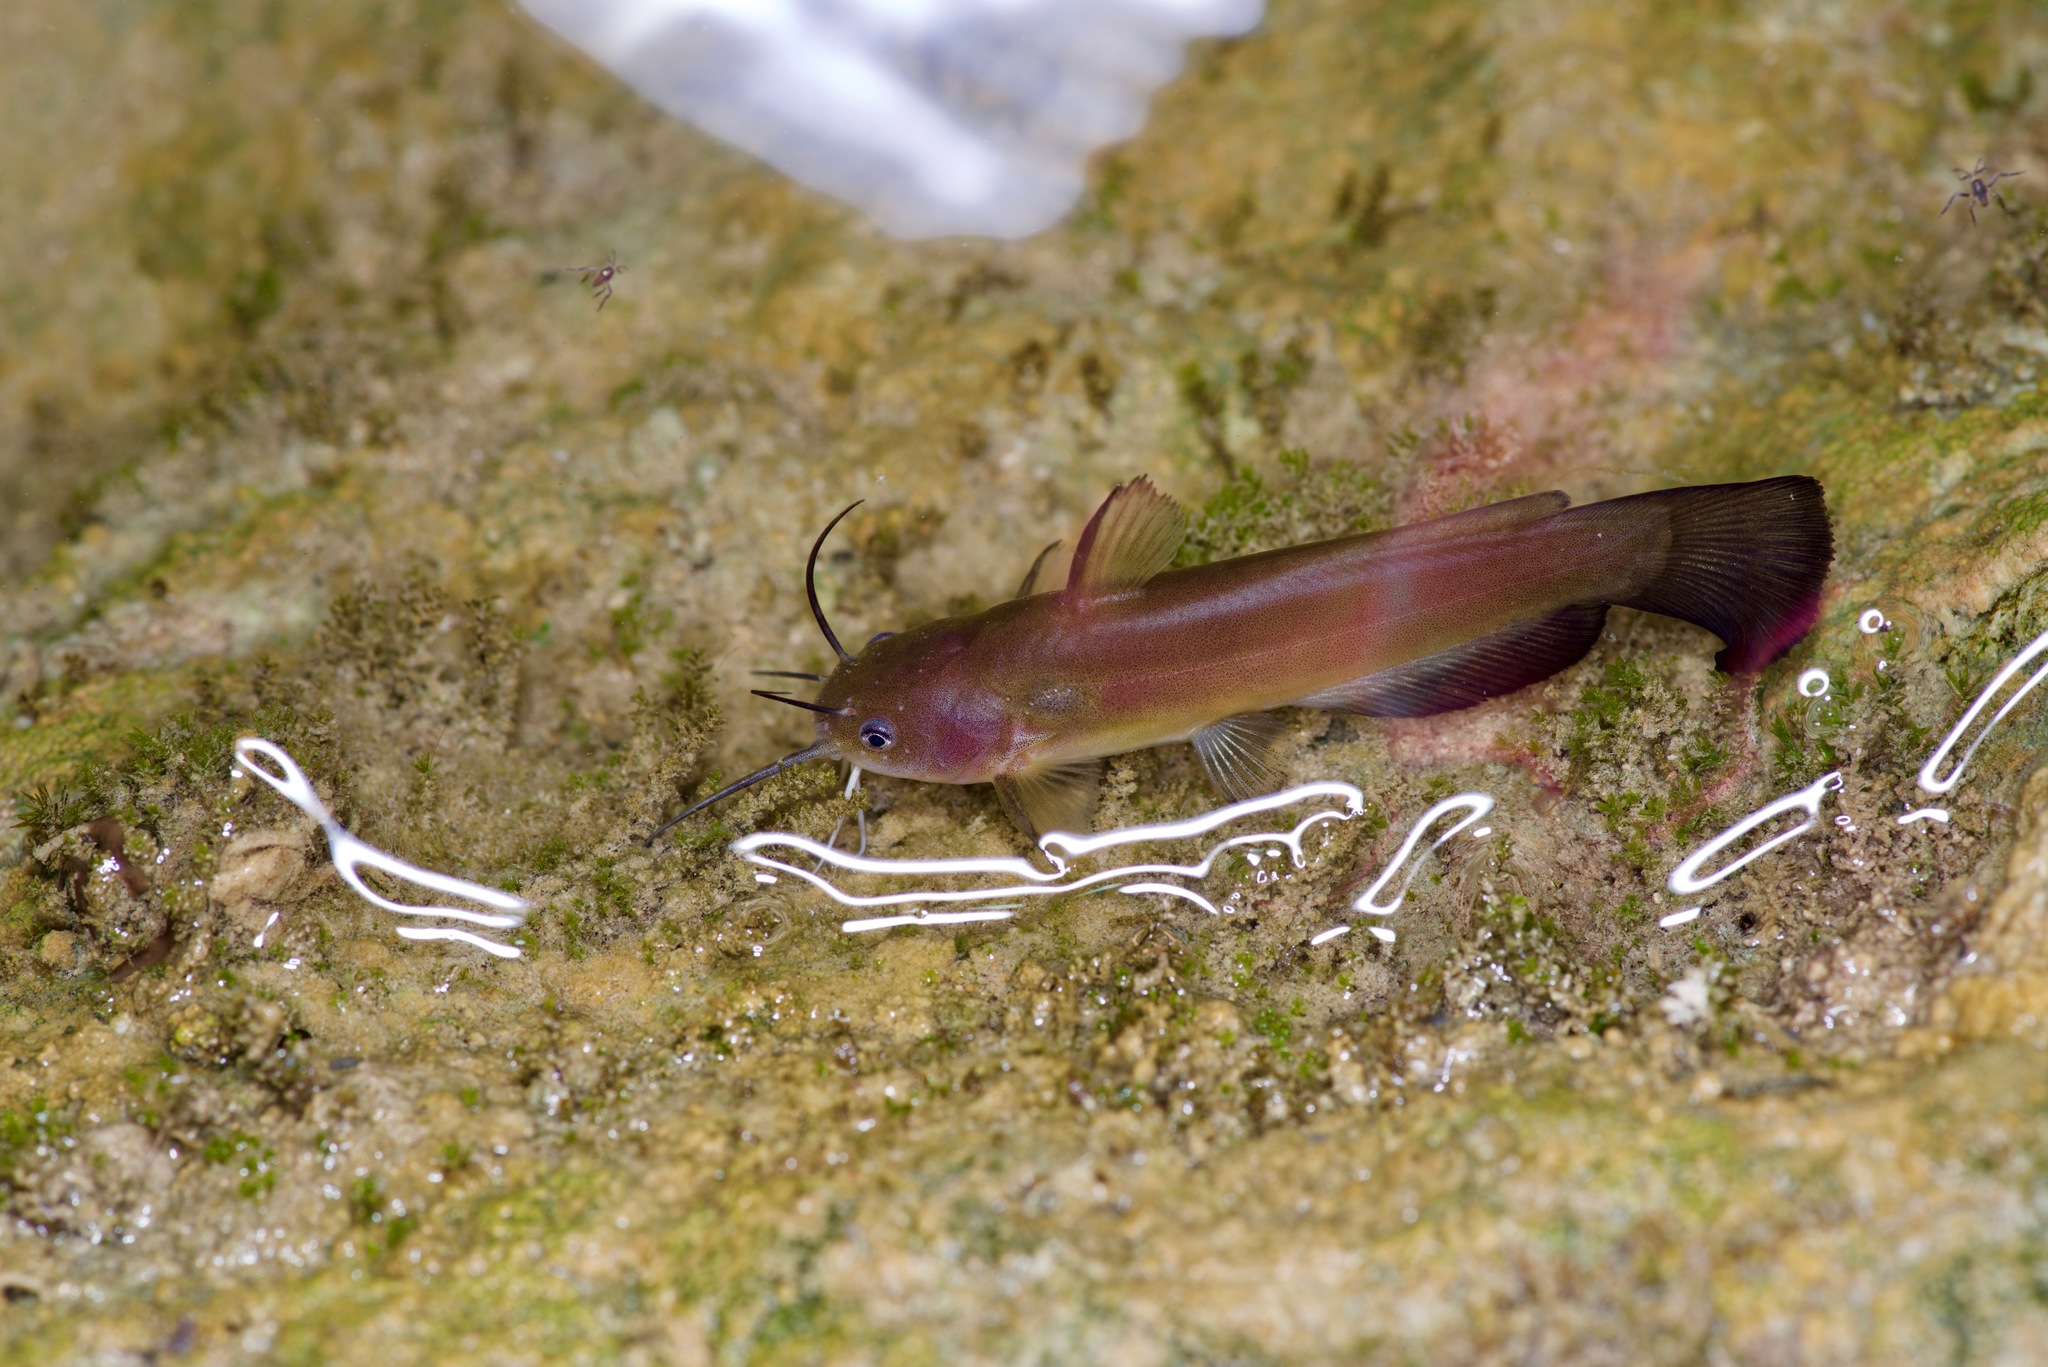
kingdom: Animalia
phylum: Chordata
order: Siluriformes
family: Ictaluridae
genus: Ameiurus
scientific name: Ameiurus natalis
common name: Yellow bullhead
